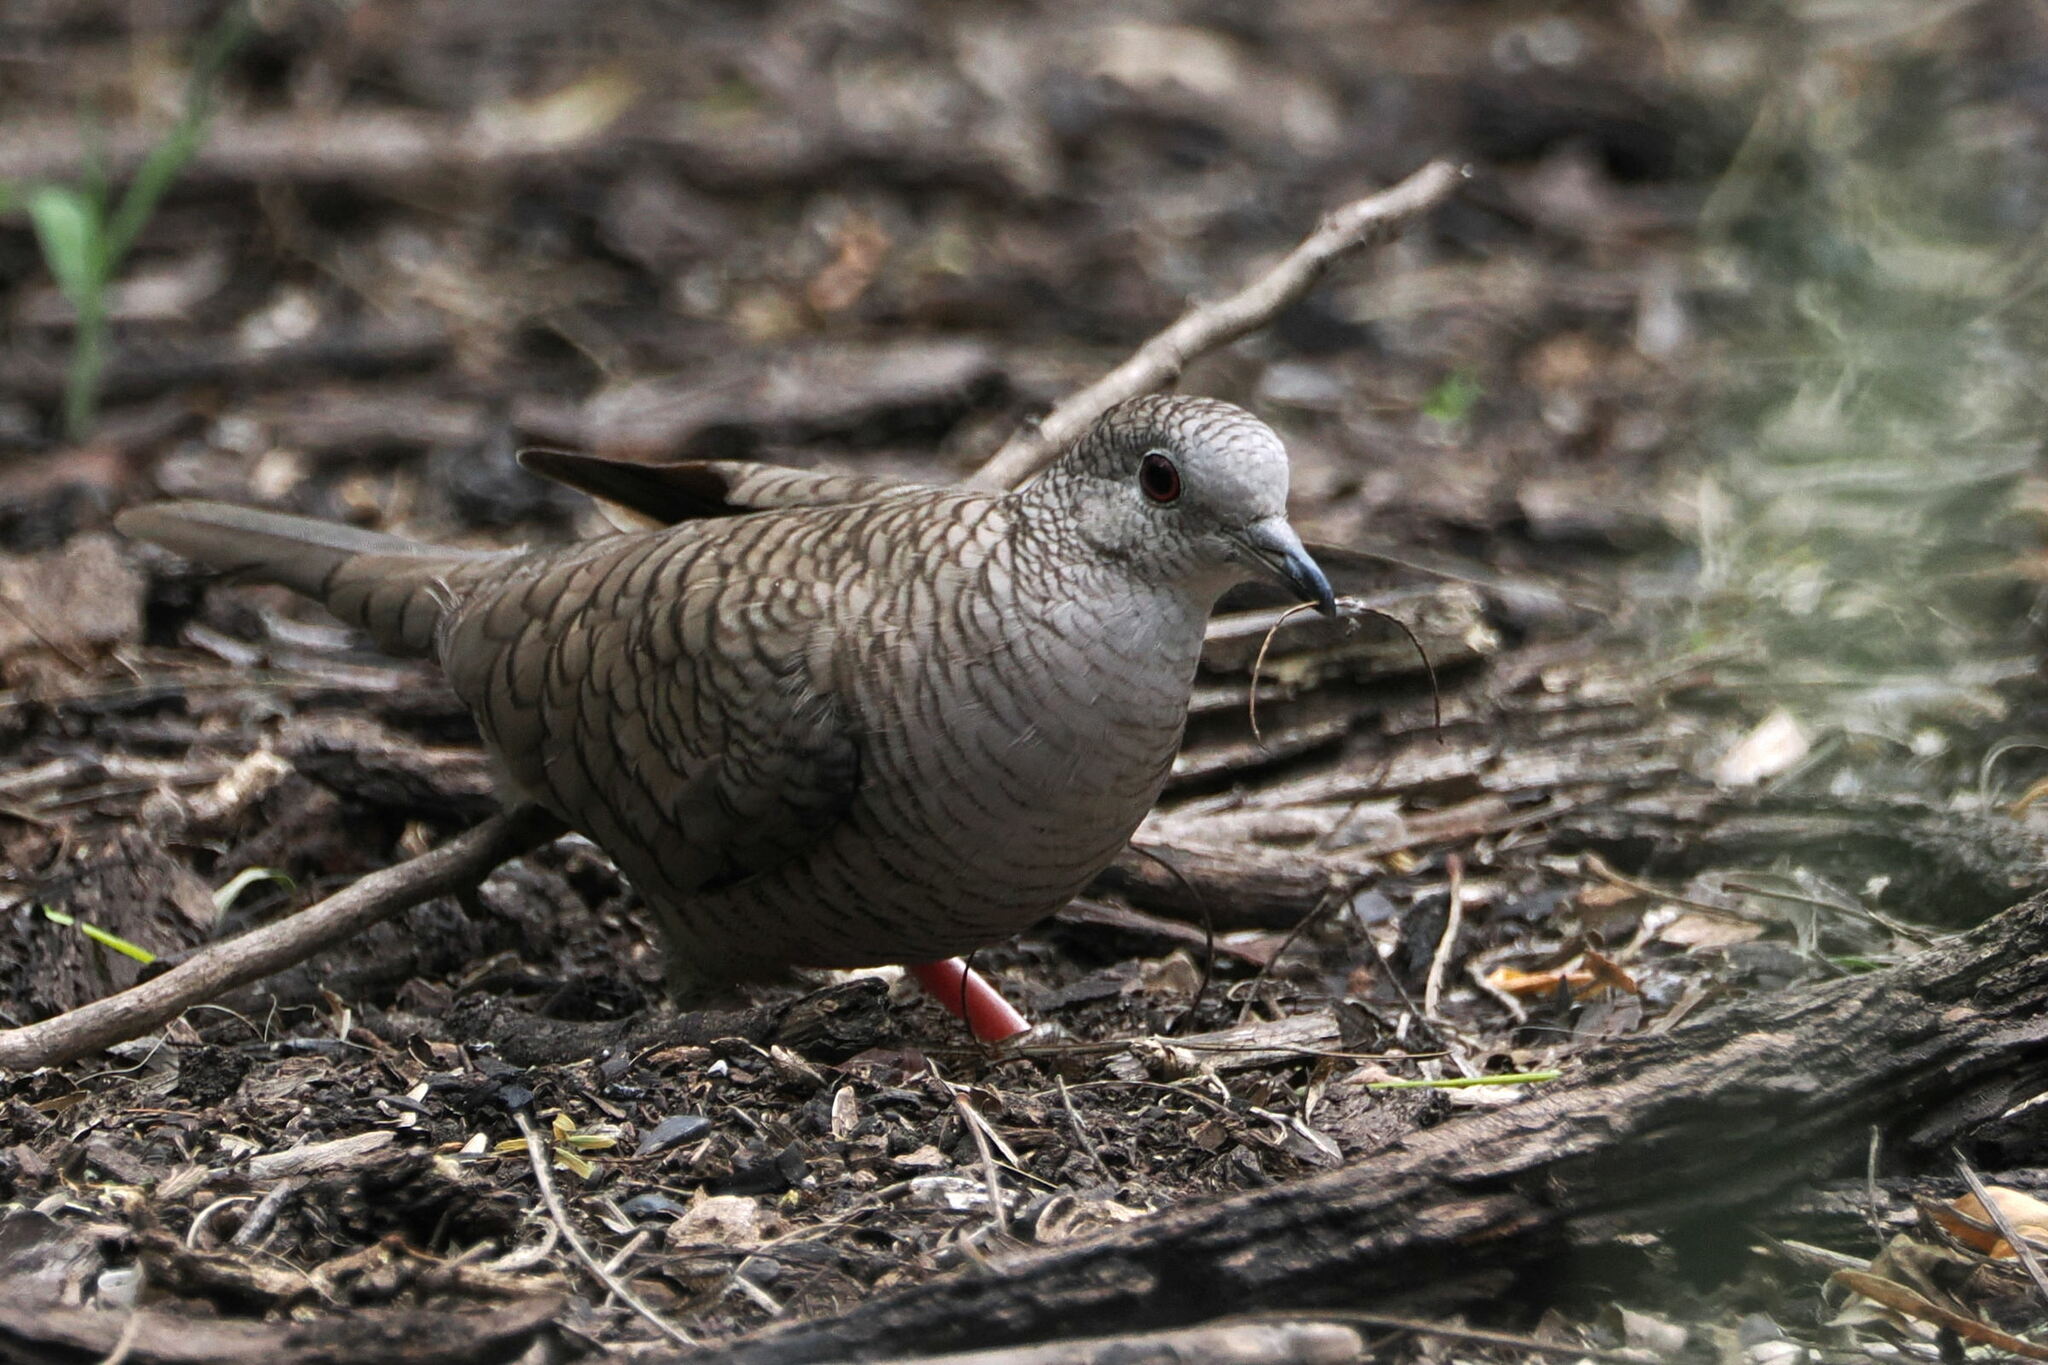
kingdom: Animalia
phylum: Chordata
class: Aves
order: Columbiformes
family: Columbidae
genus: Columbina
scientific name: Columbina inca
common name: Inca dove
